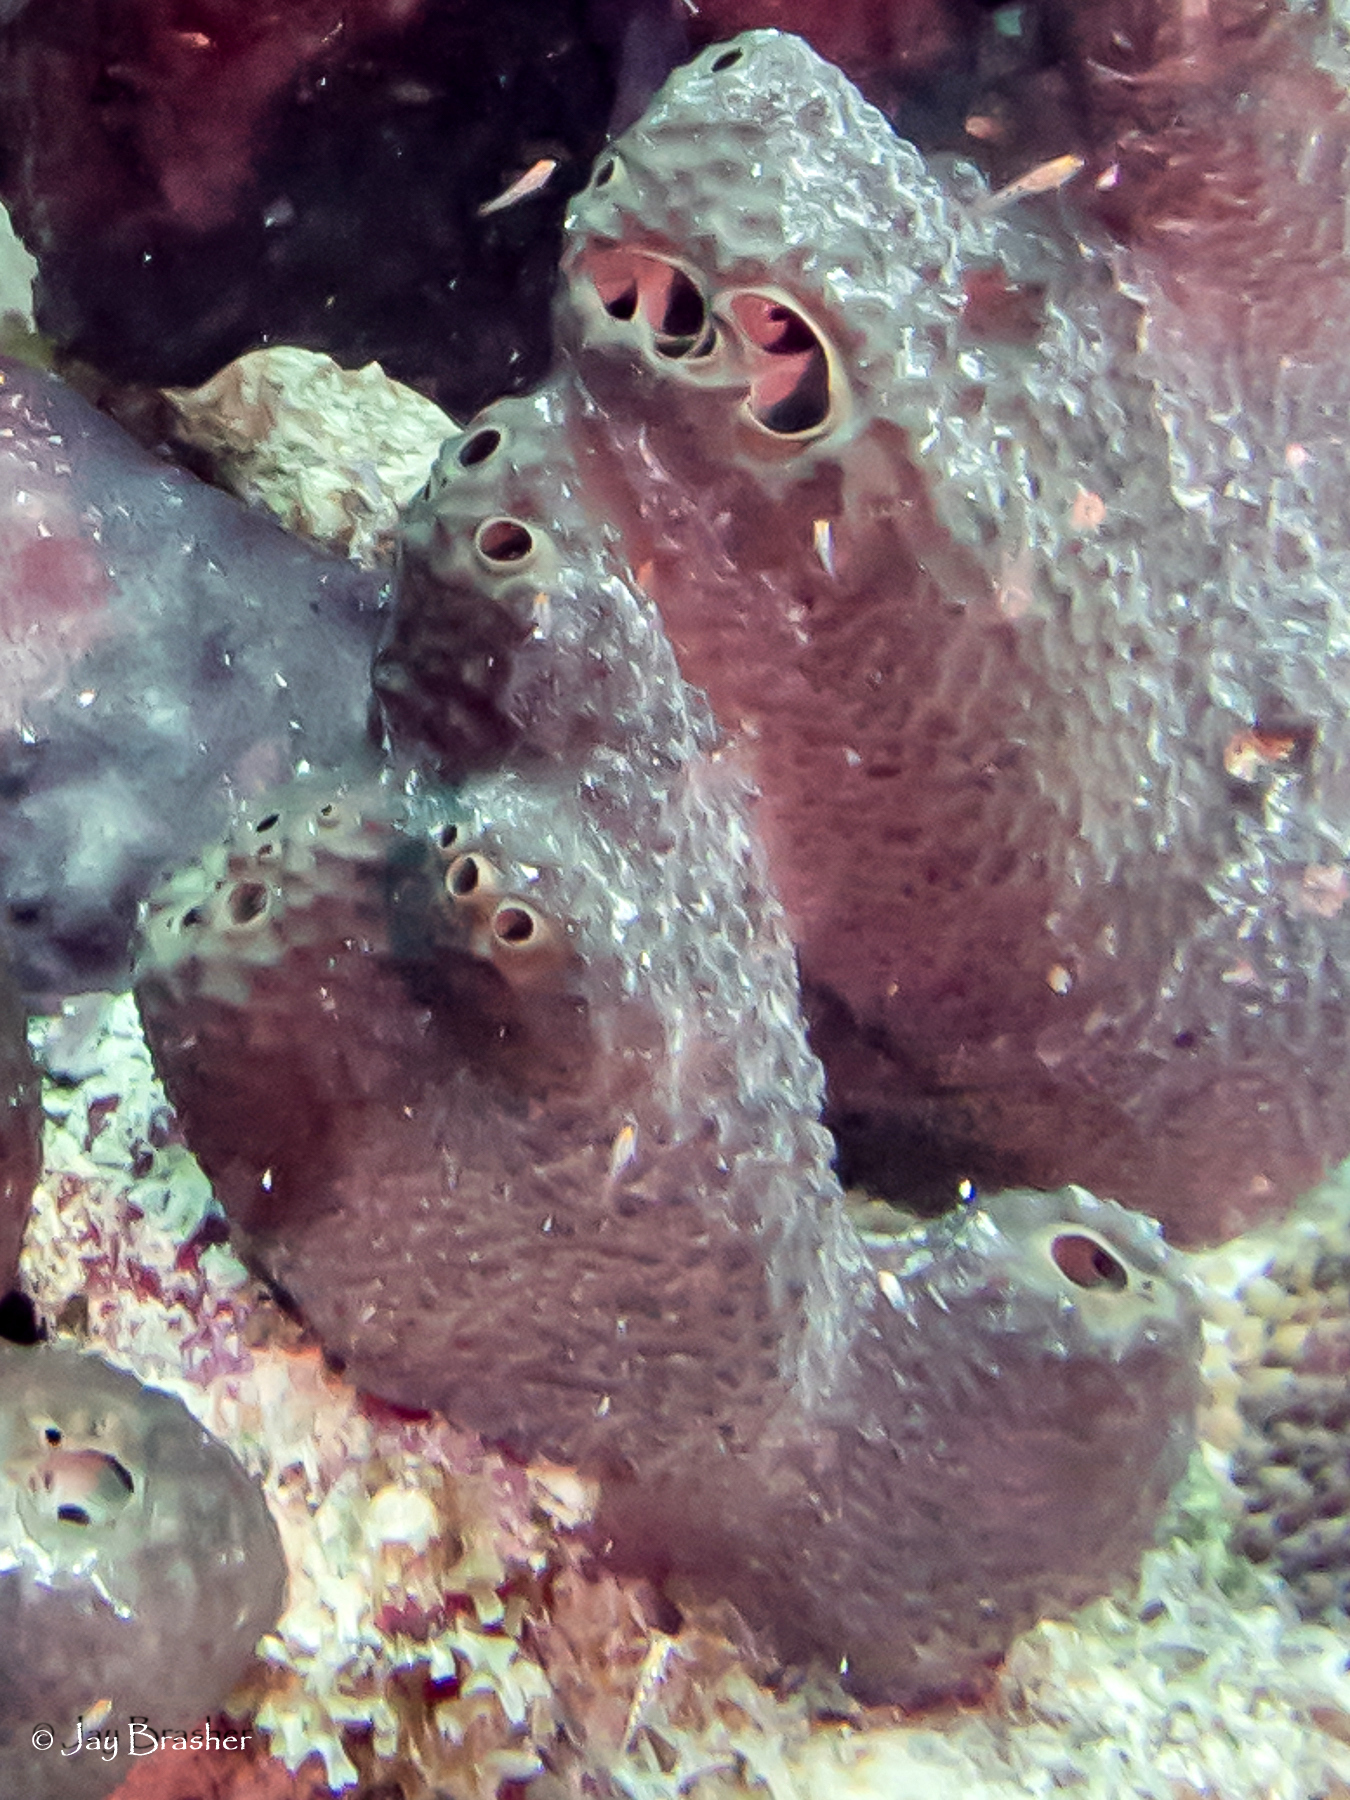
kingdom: Animalia
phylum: Porifera
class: Demospongiae
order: Dictyoceratida
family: Thorectidae
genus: Smenospongia
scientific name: Smenospongia conulosa
